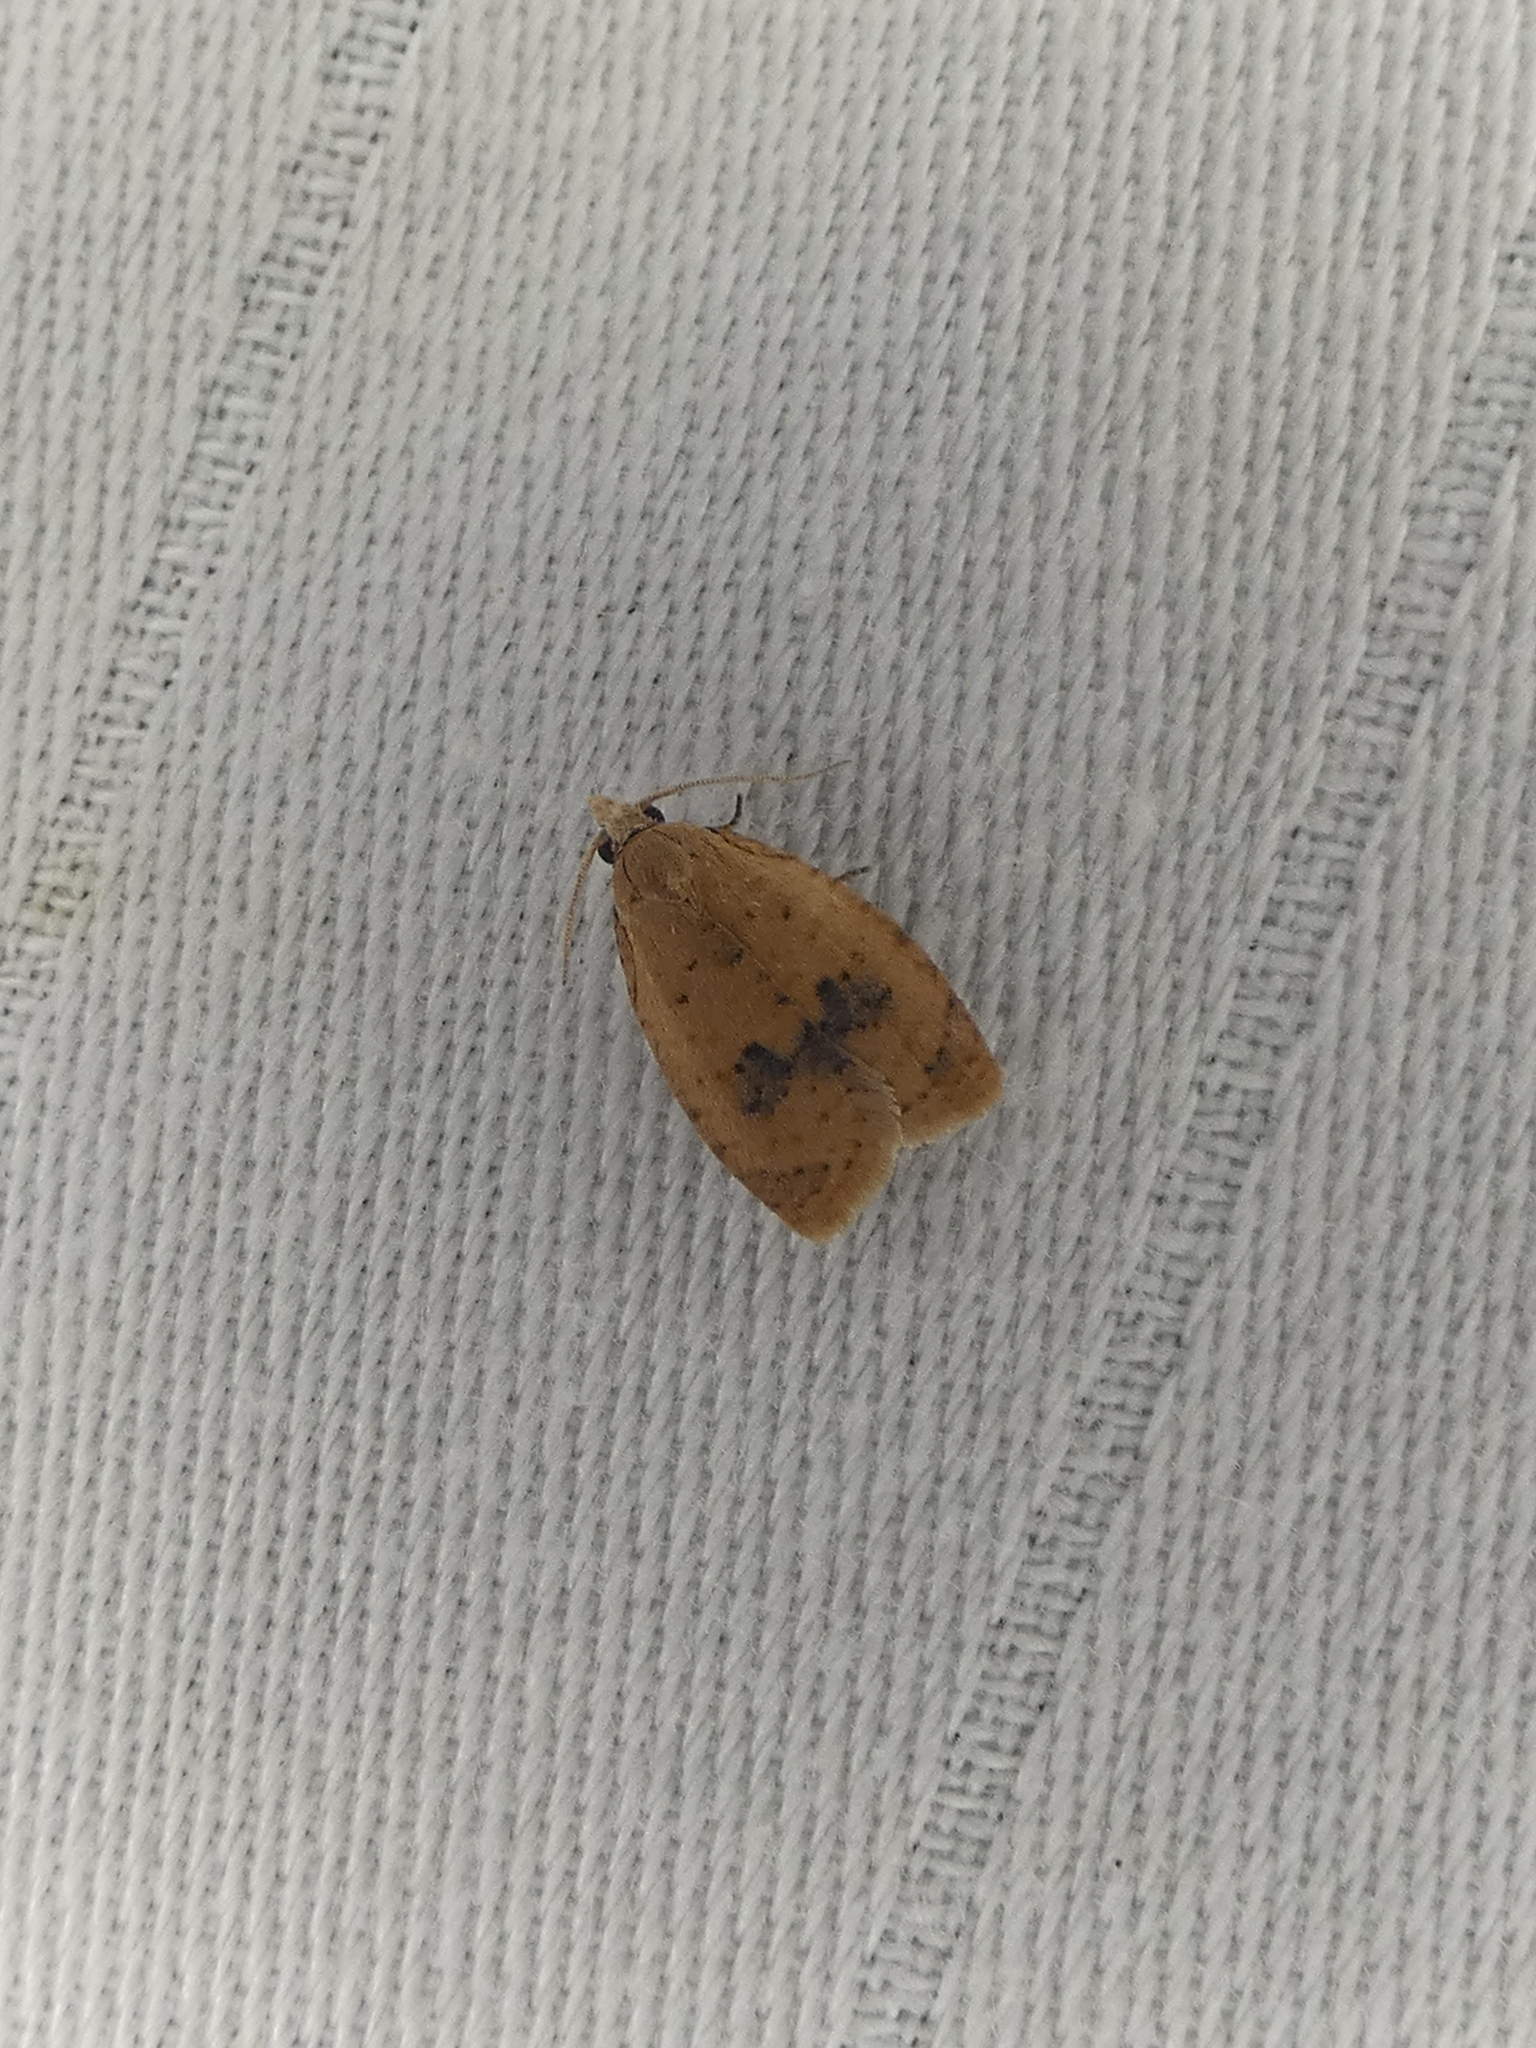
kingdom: Animalia
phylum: Arthropoda
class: Insecta
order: Lepidoptera
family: Tortricidae
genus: Sparganothoides
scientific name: Sparganothoides lentiginosana
